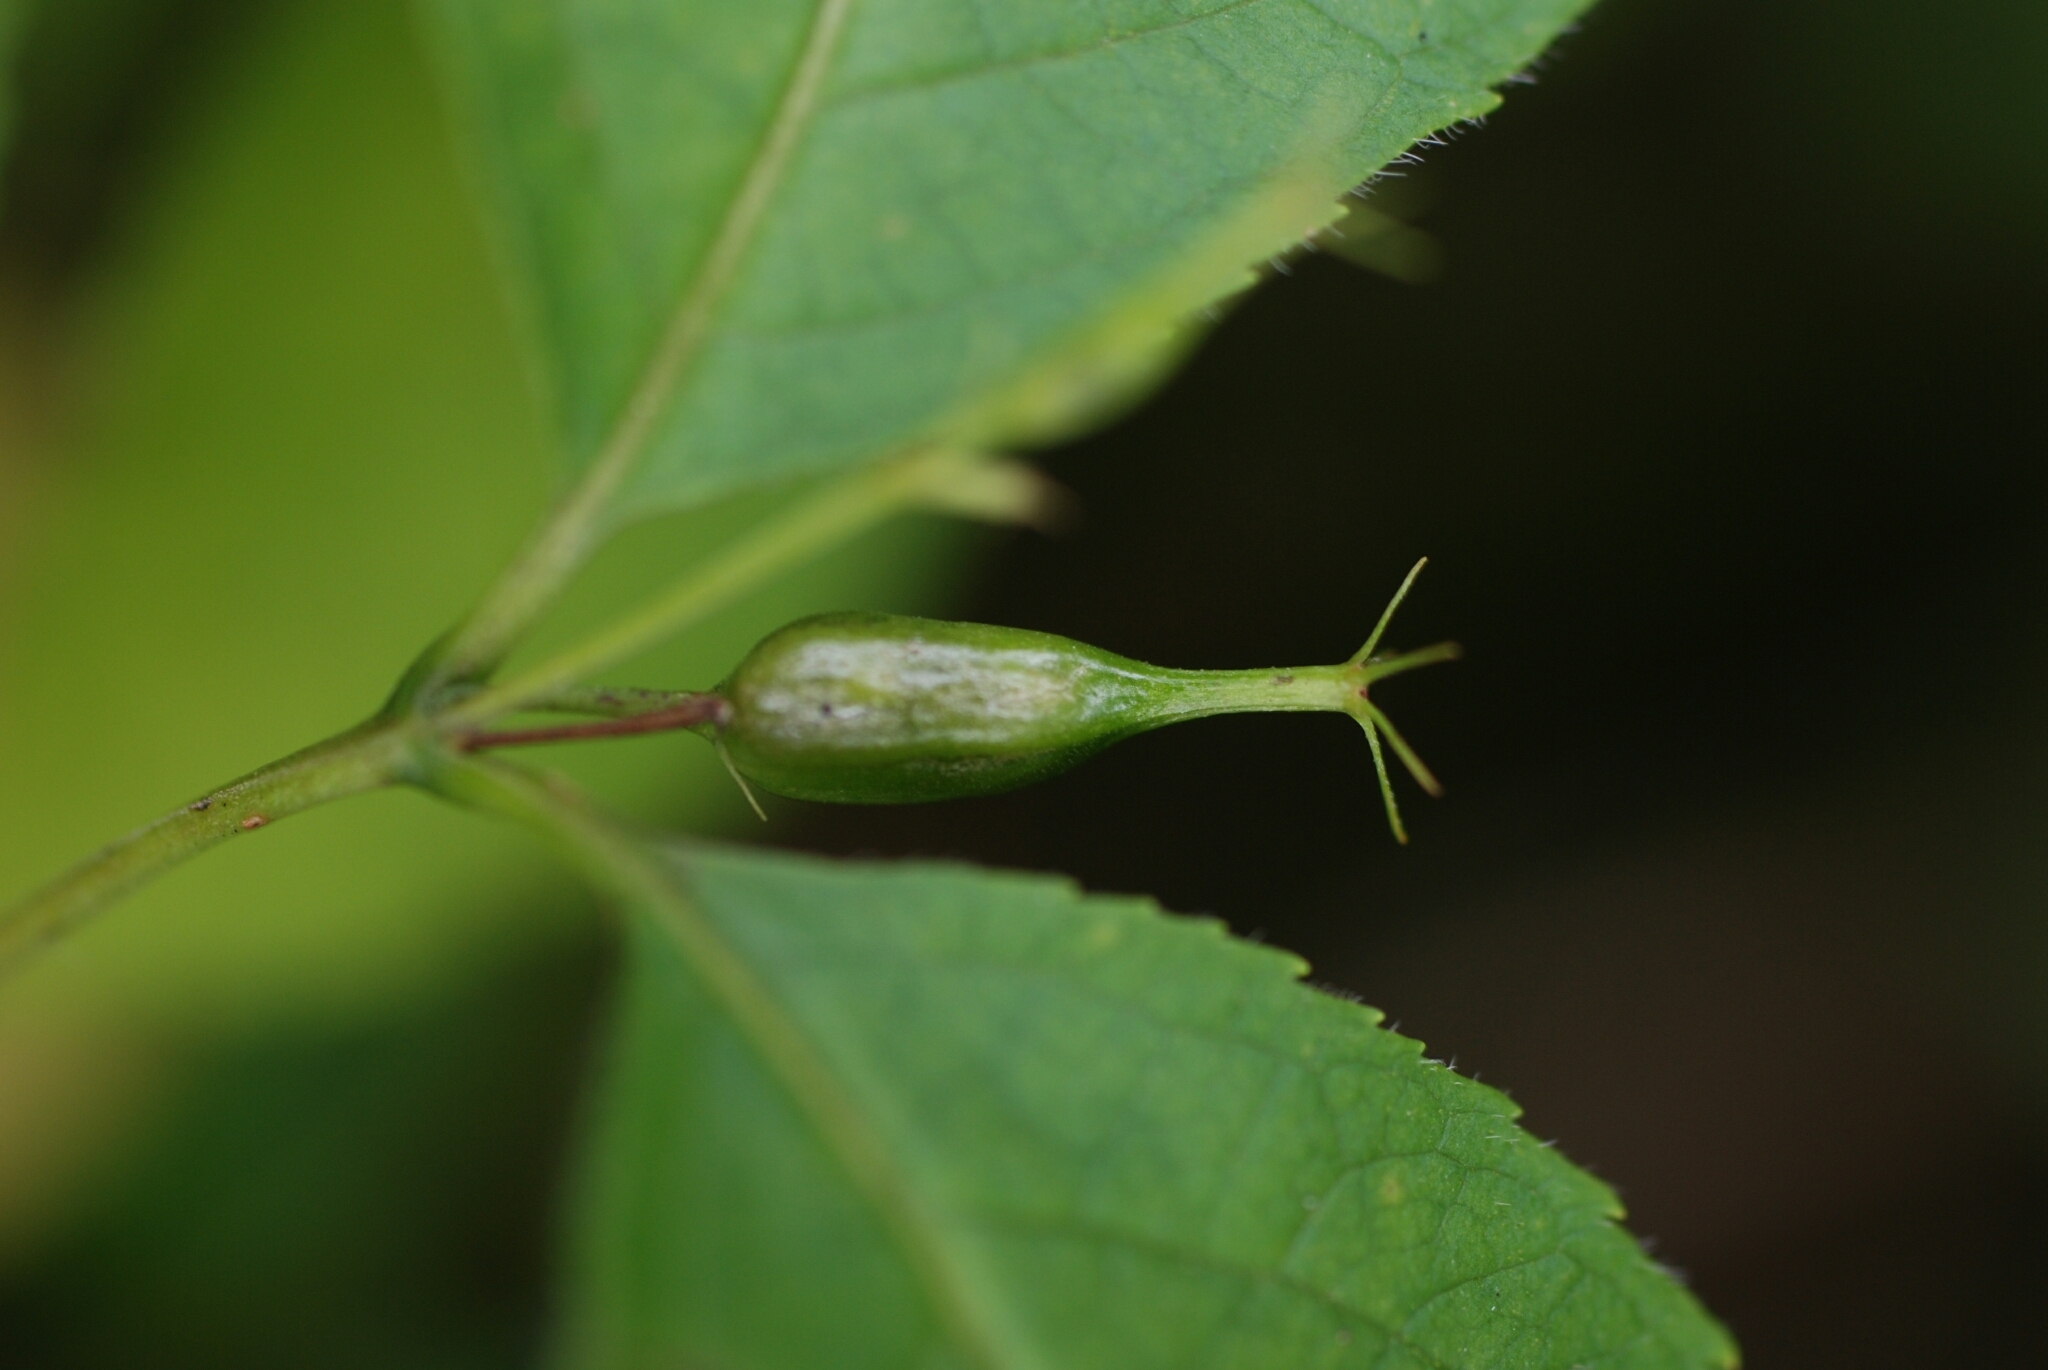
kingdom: Plantae
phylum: Tracheophyta
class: Magnoliopsida
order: Dipsacales
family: Caprifoliaceae
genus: Diervilla
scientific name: Diervilla lonicera
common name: Bush-honeysuckle
